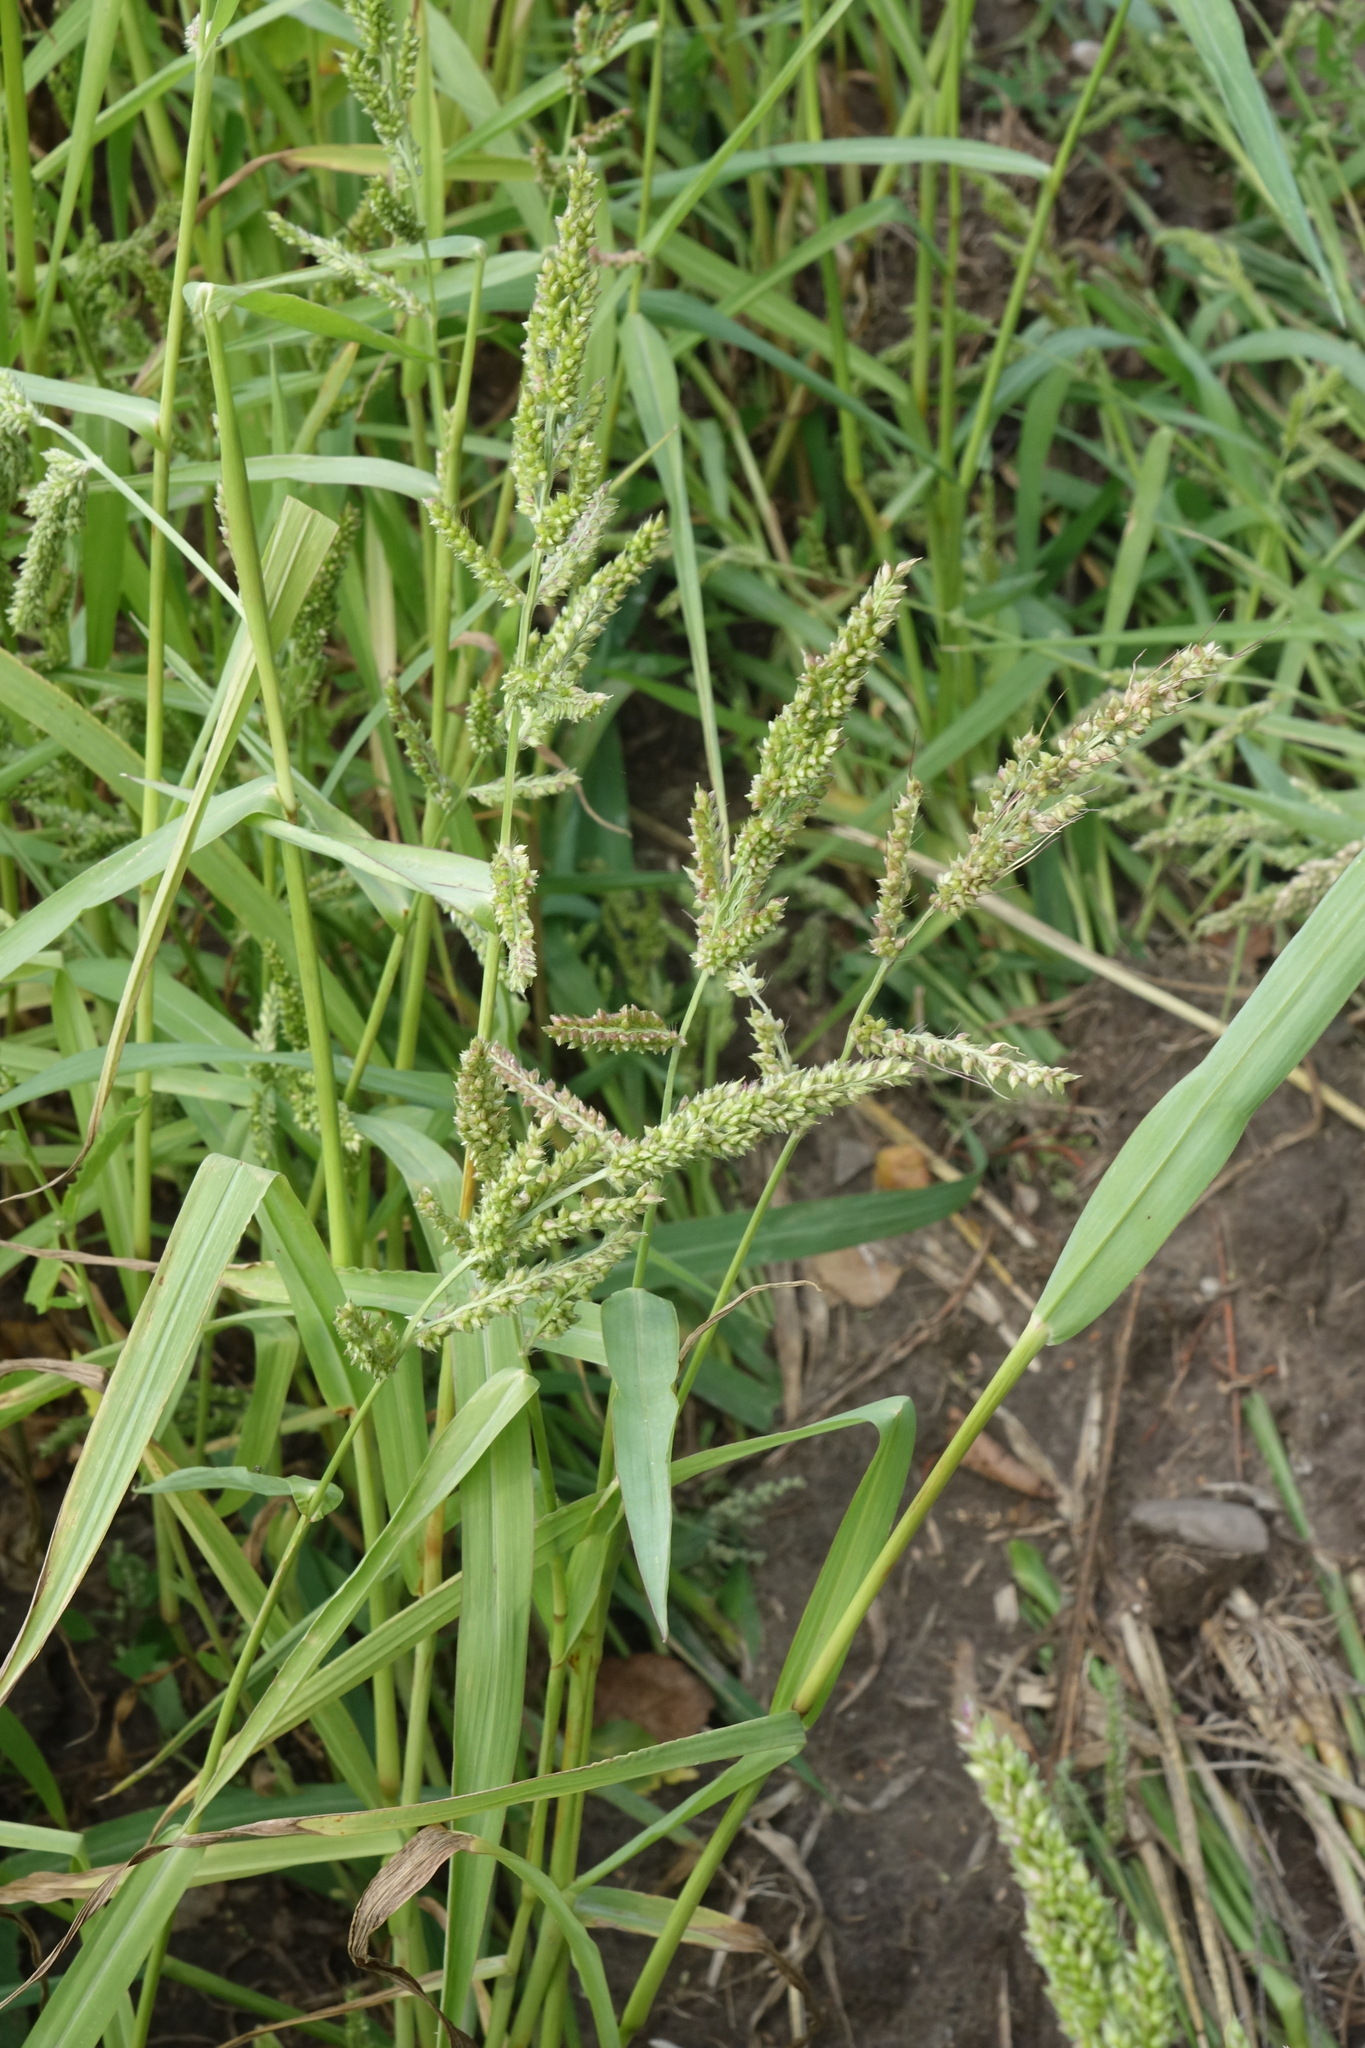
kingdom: Plantae
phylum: Tracheophyta
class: Liliopsida
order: Poales
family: Poaceae
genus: Echinochloa
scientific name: Echinochloa crus-galli
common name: Cockspur
